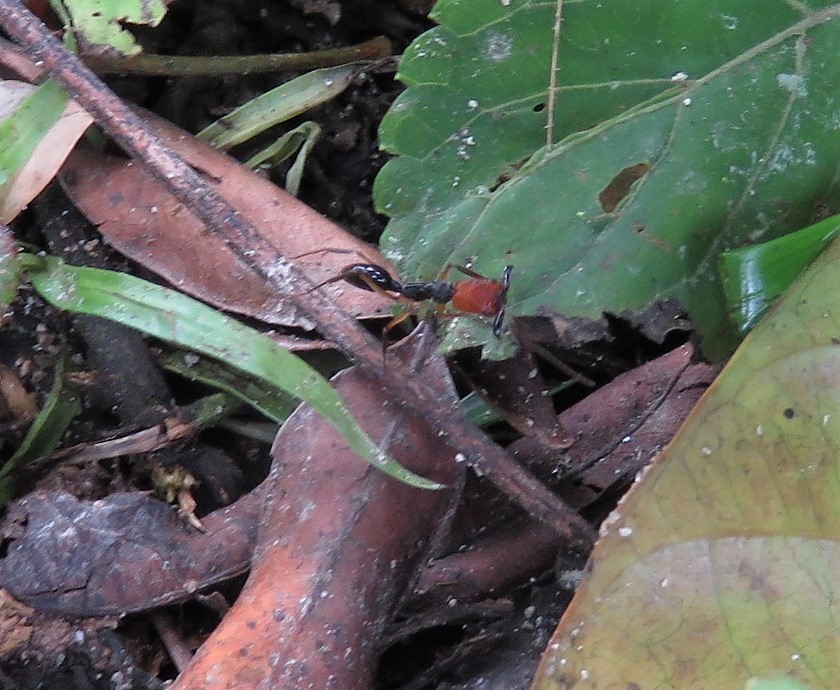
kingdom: Animalia
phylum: Arthropoda
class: Insecta
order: Hymenoptera
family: Formicidae
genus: Odontomachus
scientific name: Odontomachus erythrocephalus
